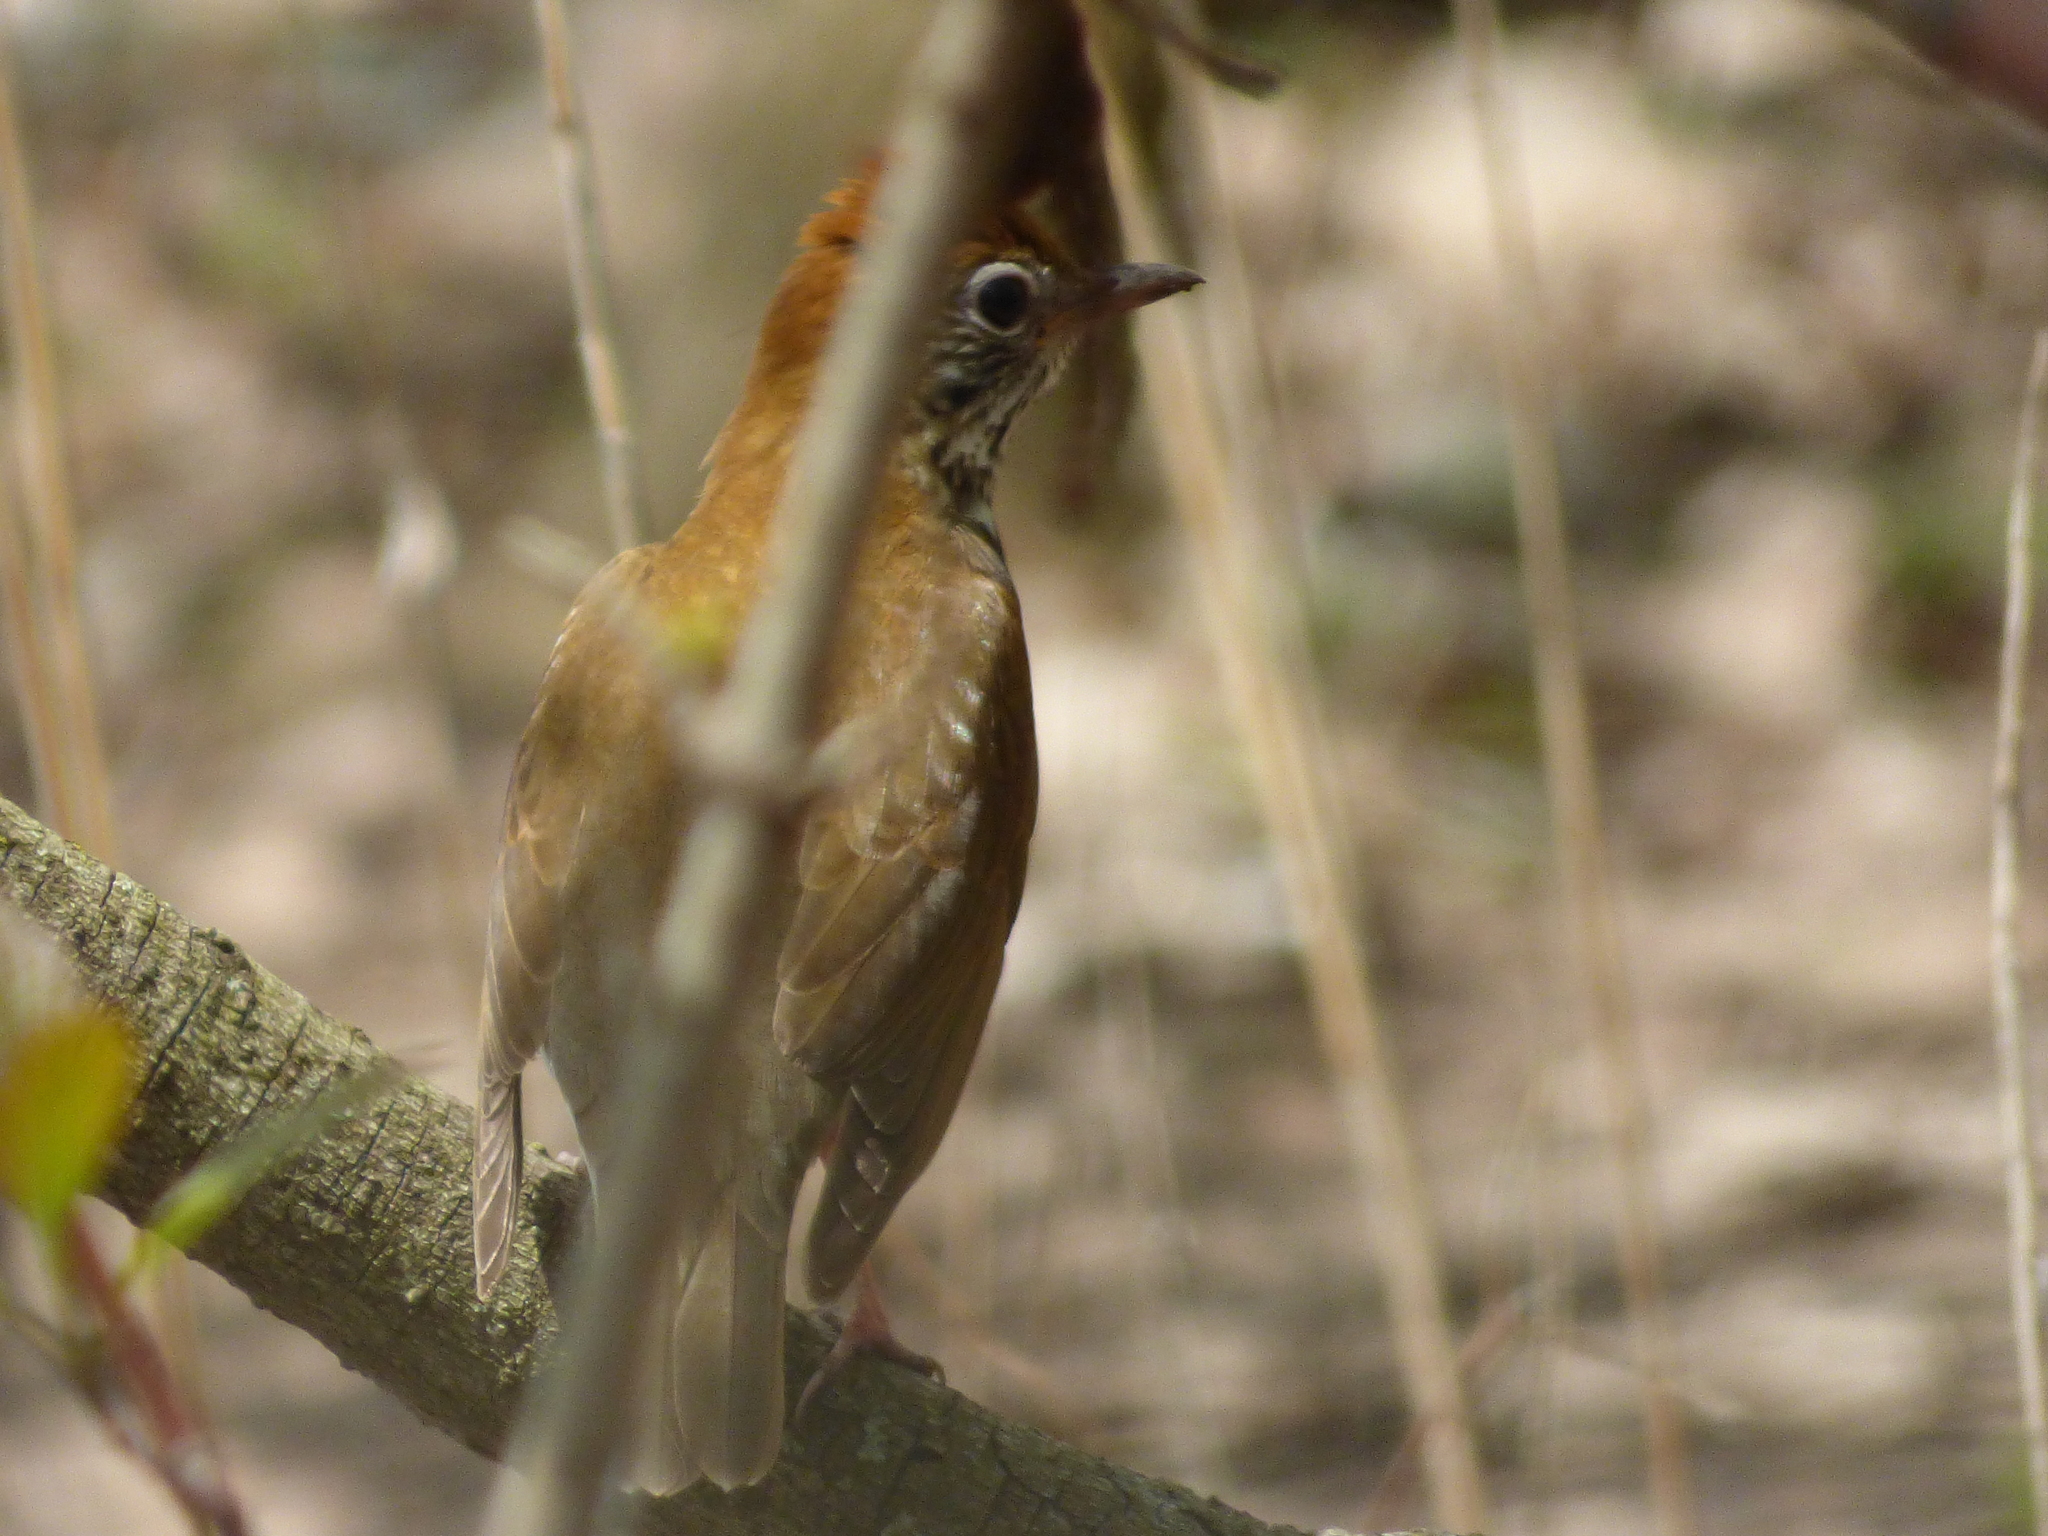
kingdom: Animalia
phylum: Chordata
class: Aves
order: Passeriformes
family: Turdidae
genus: Hylocichla
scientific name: Hylocichla mustelina
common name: Wood thrush
